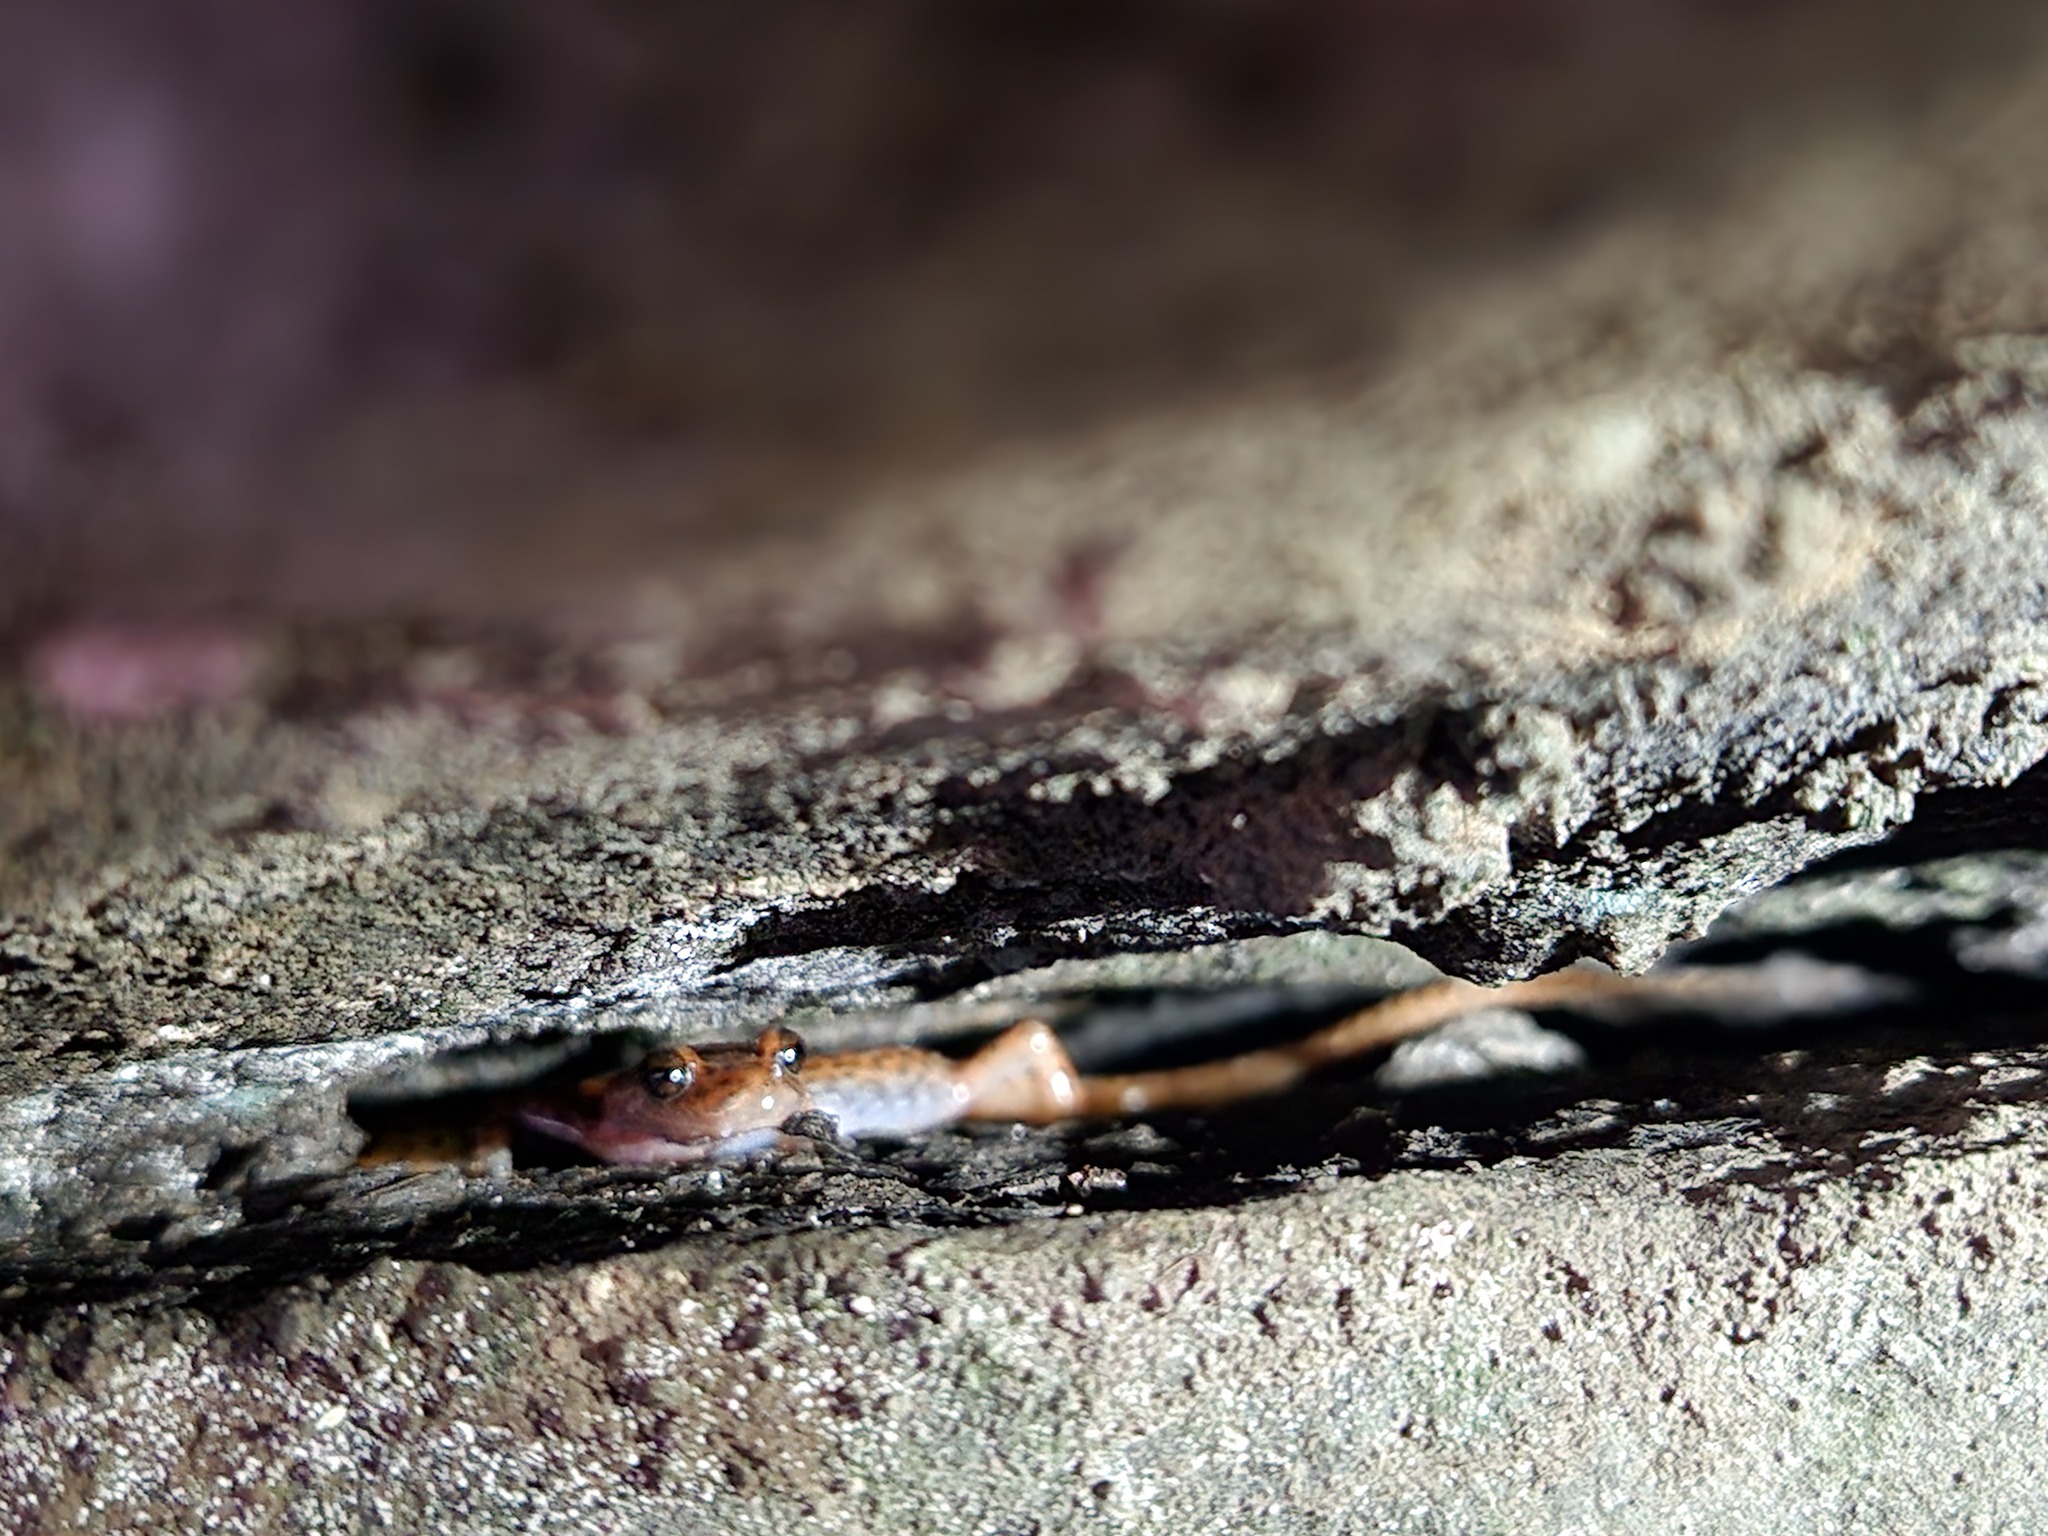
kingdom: Animalia
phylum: Chordata
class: Amphibia
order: Caudata
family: Plethodontidae
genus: Eurycea
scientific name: Eurycea lucifuga
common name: Cave salamander
